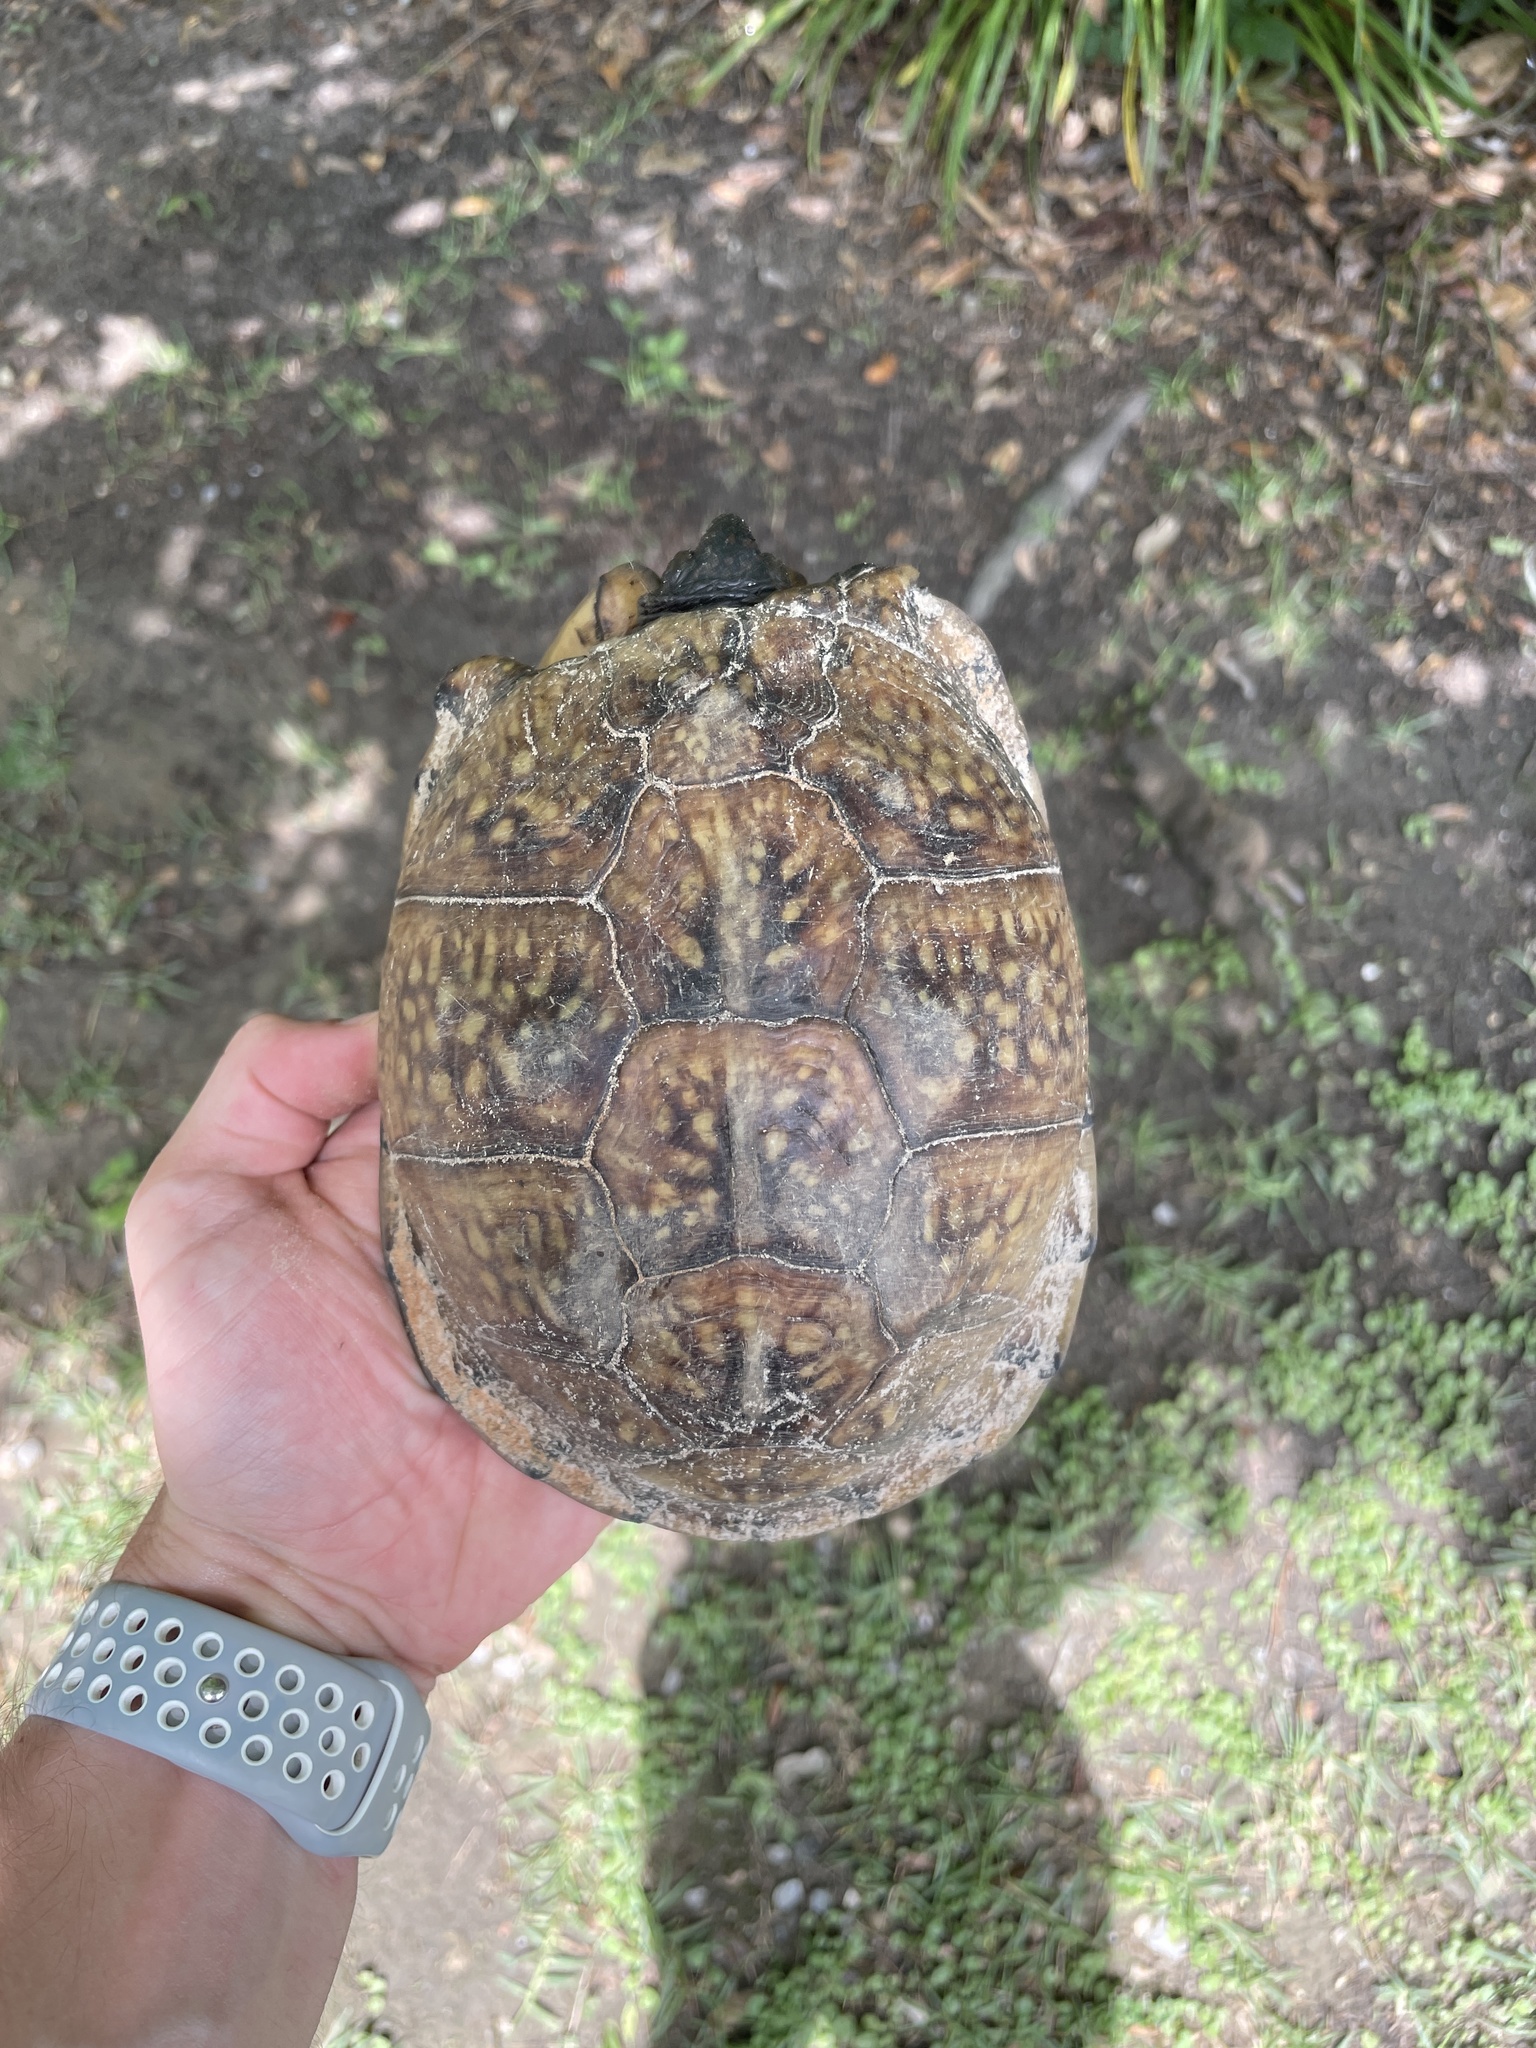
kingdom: Animalia
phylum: Chordata
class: Testudines
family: Emydidae
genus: Terrapene
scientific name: Terrapene carolina
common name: Common box turtle
